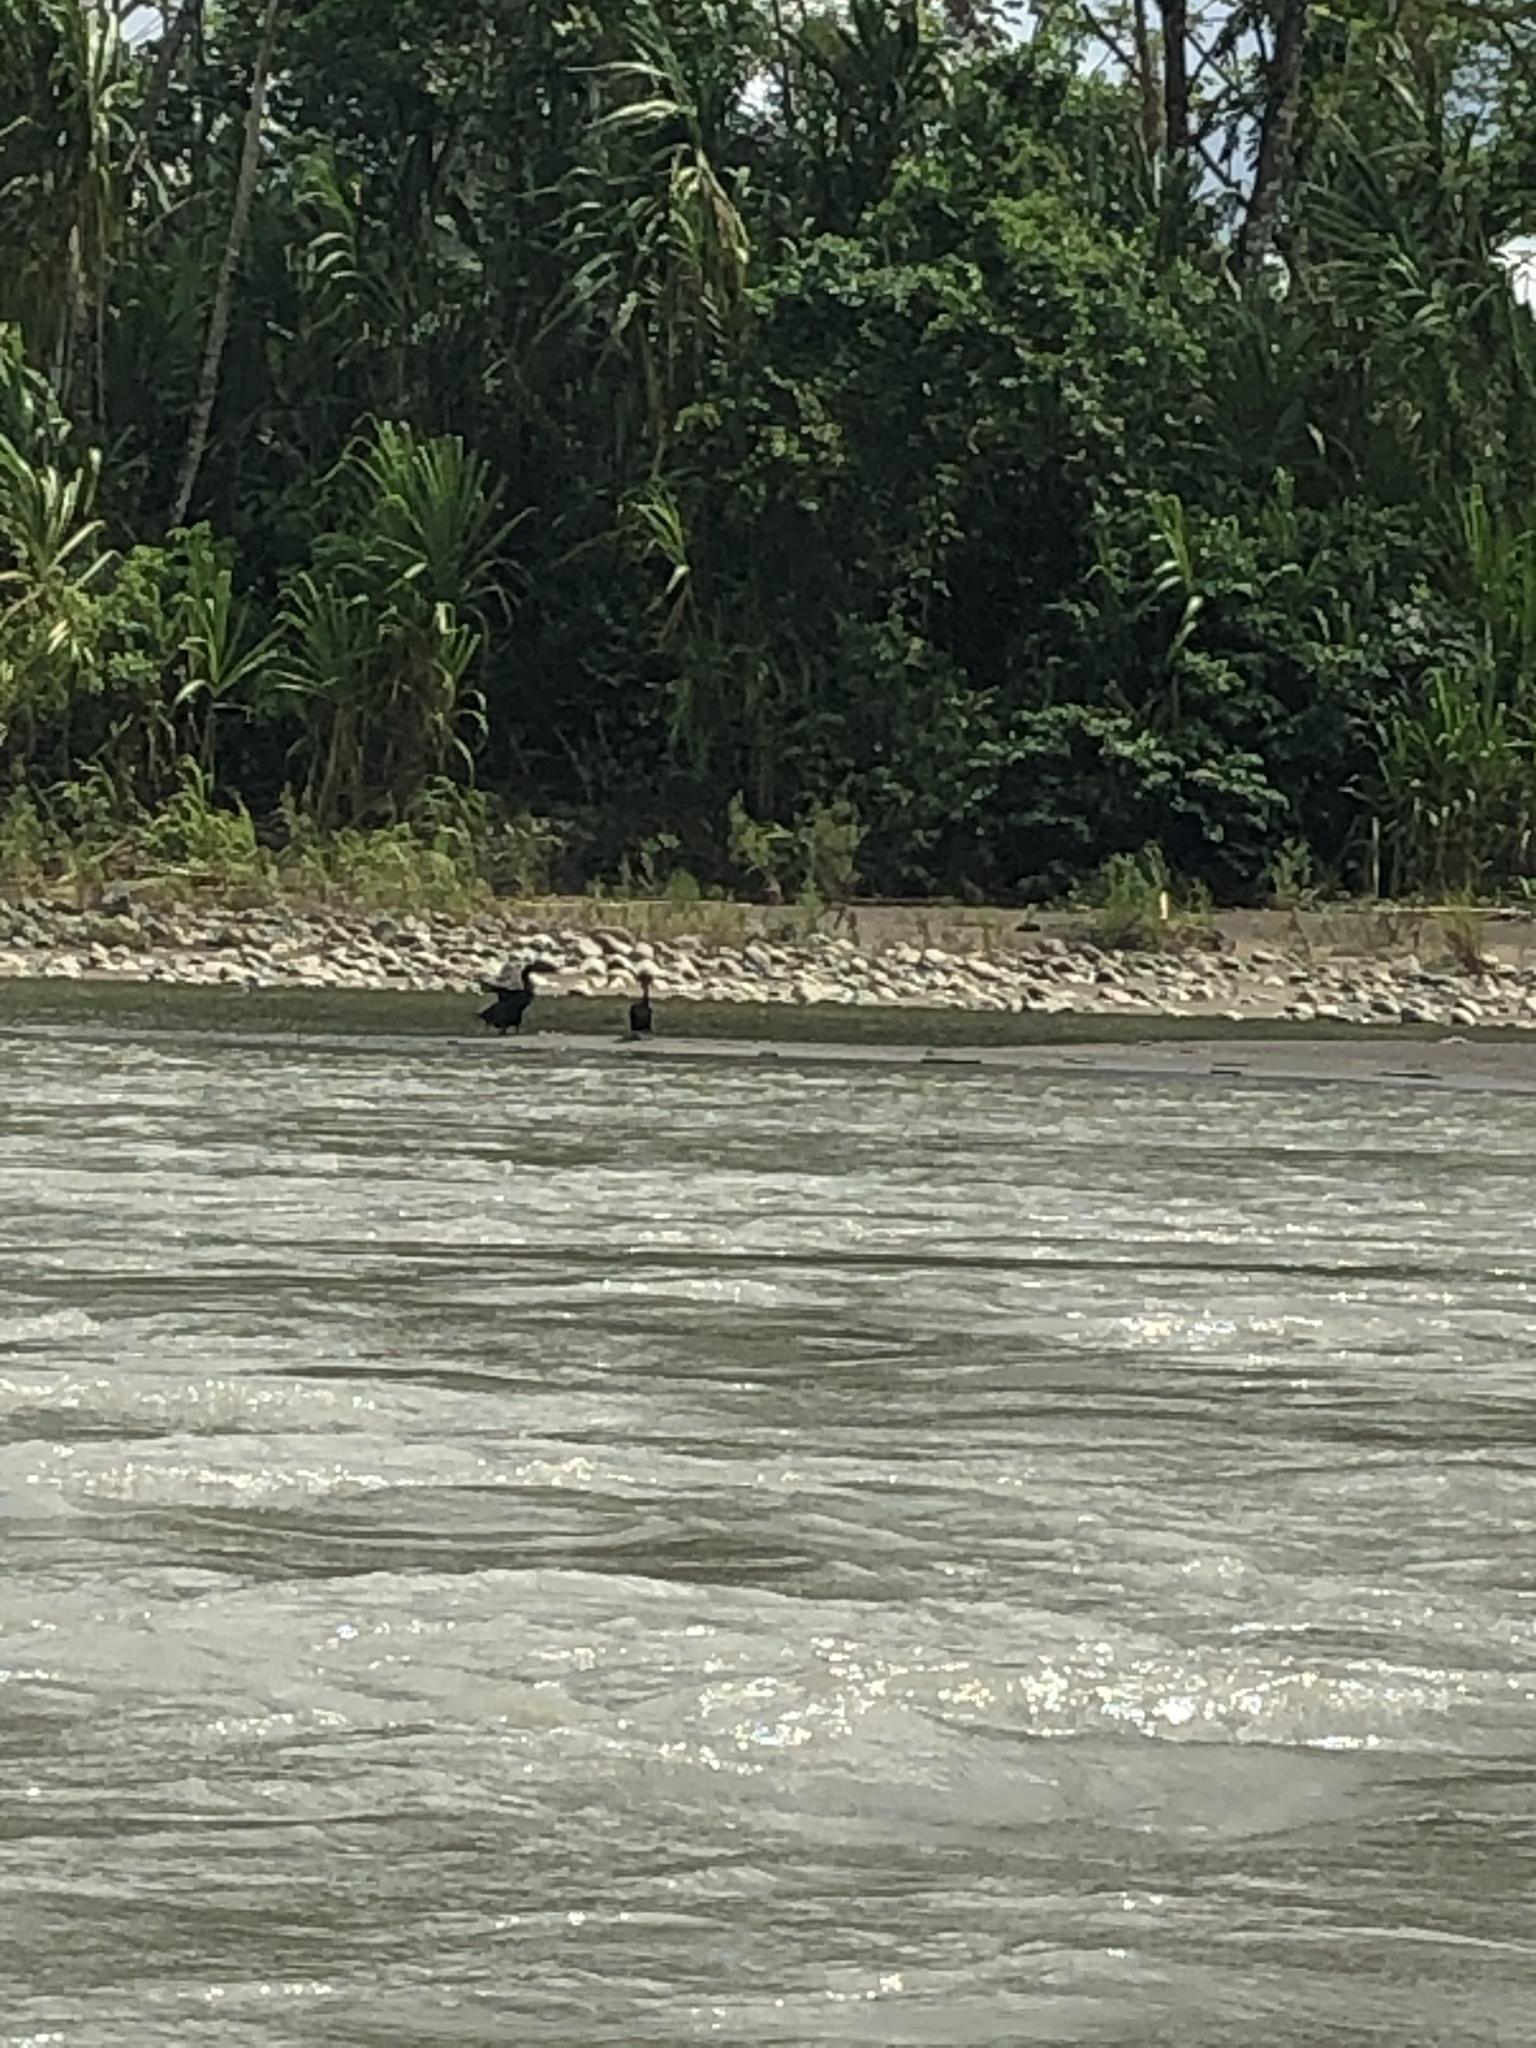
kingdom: Animalia
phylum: Chordata
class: Aves
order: Suliformes
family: Phalacrocoracidae
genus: Phalacrocorax
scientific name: Phalacrocorax brasilianus
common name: Neotropic cormorant
